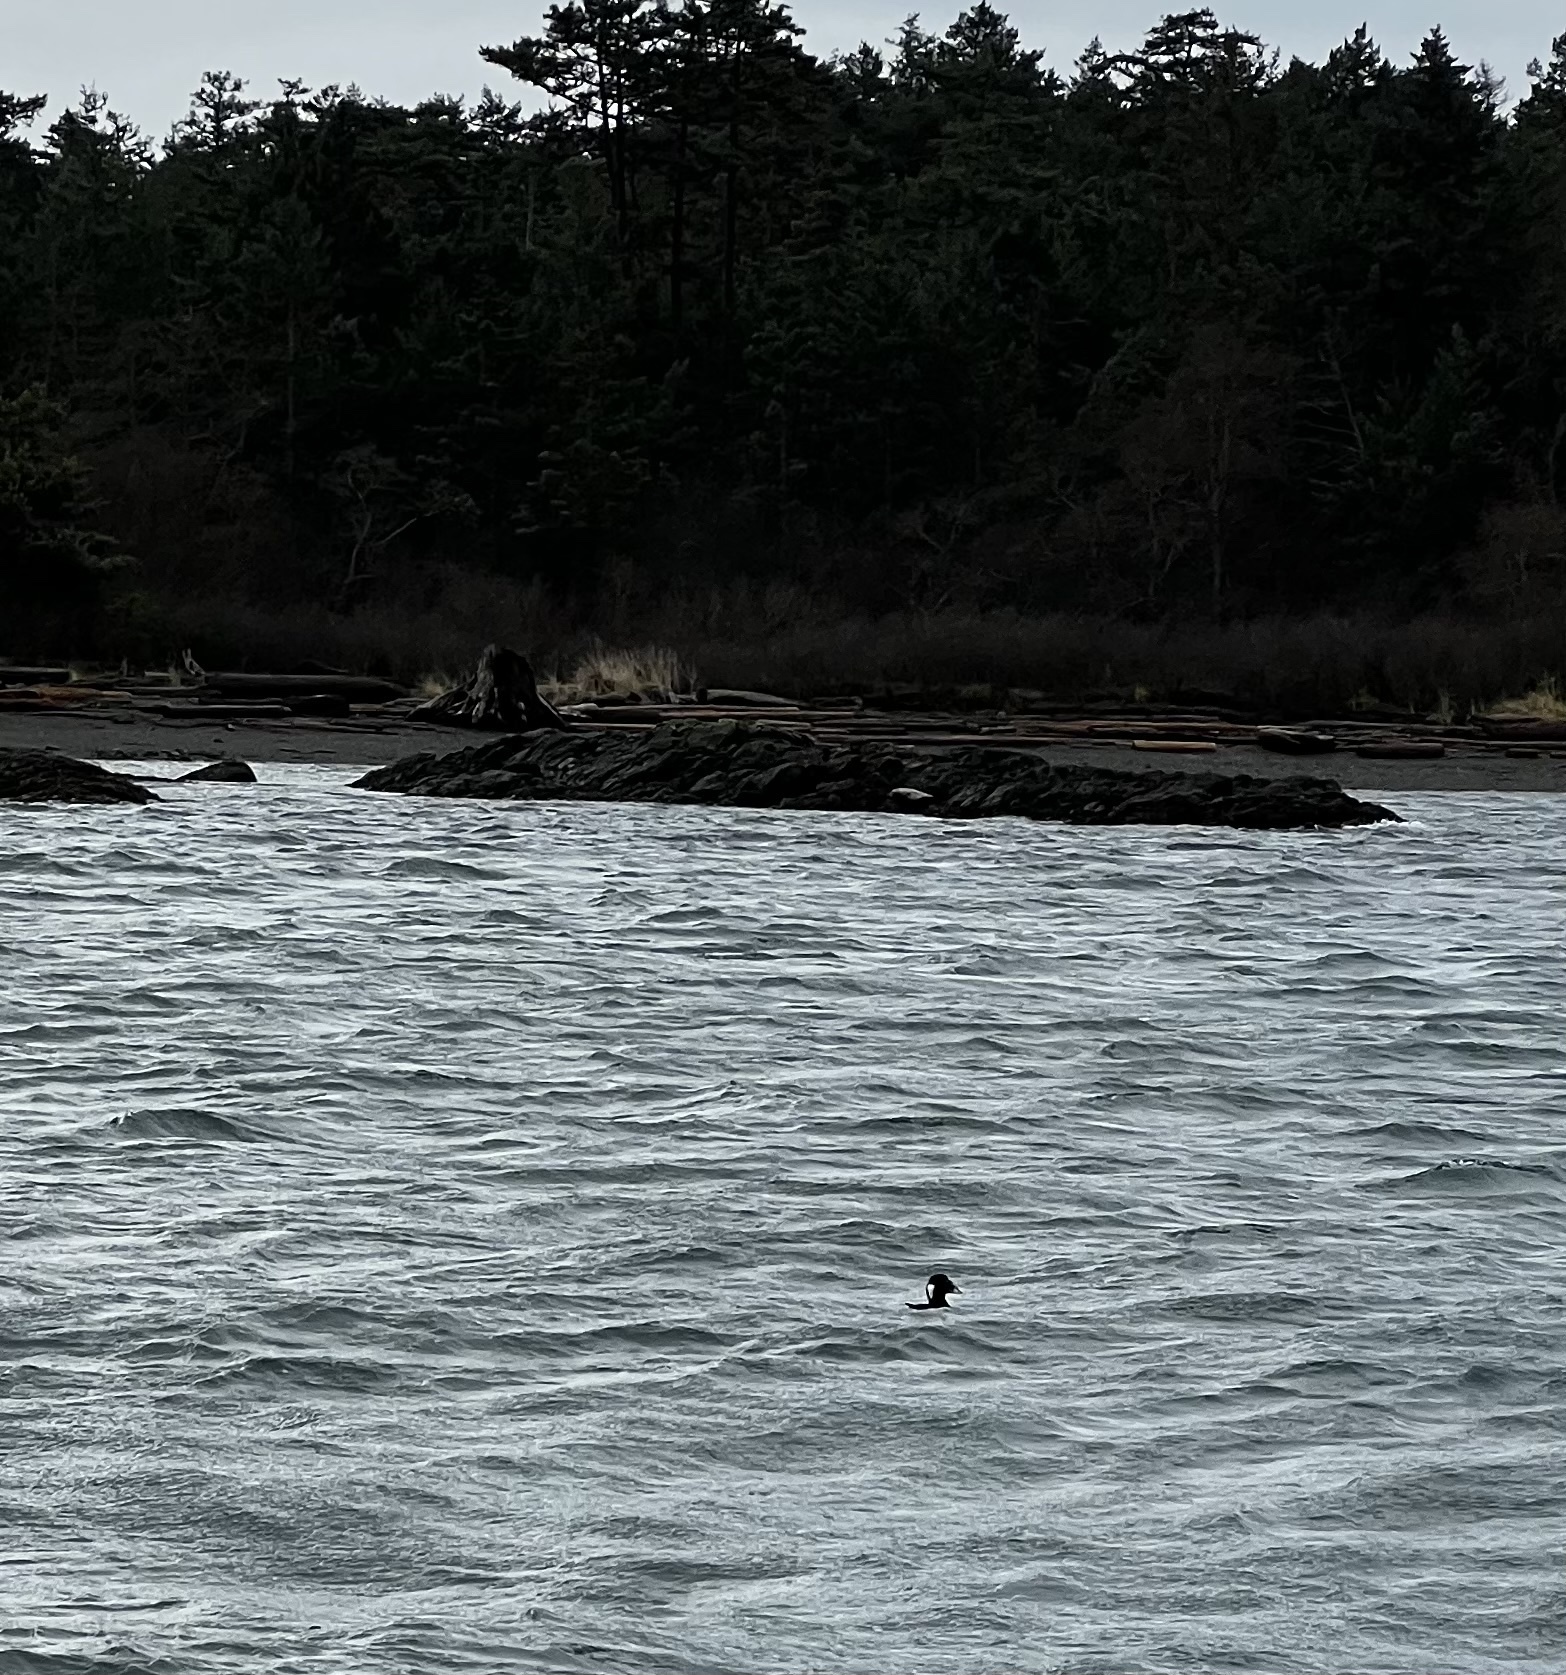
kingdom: Animalia
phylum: Chordata
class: Aves
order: Anseriformes
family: Anatidae
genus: Melanitta
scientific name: Melanitta perspicillata
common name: Surf scoter
